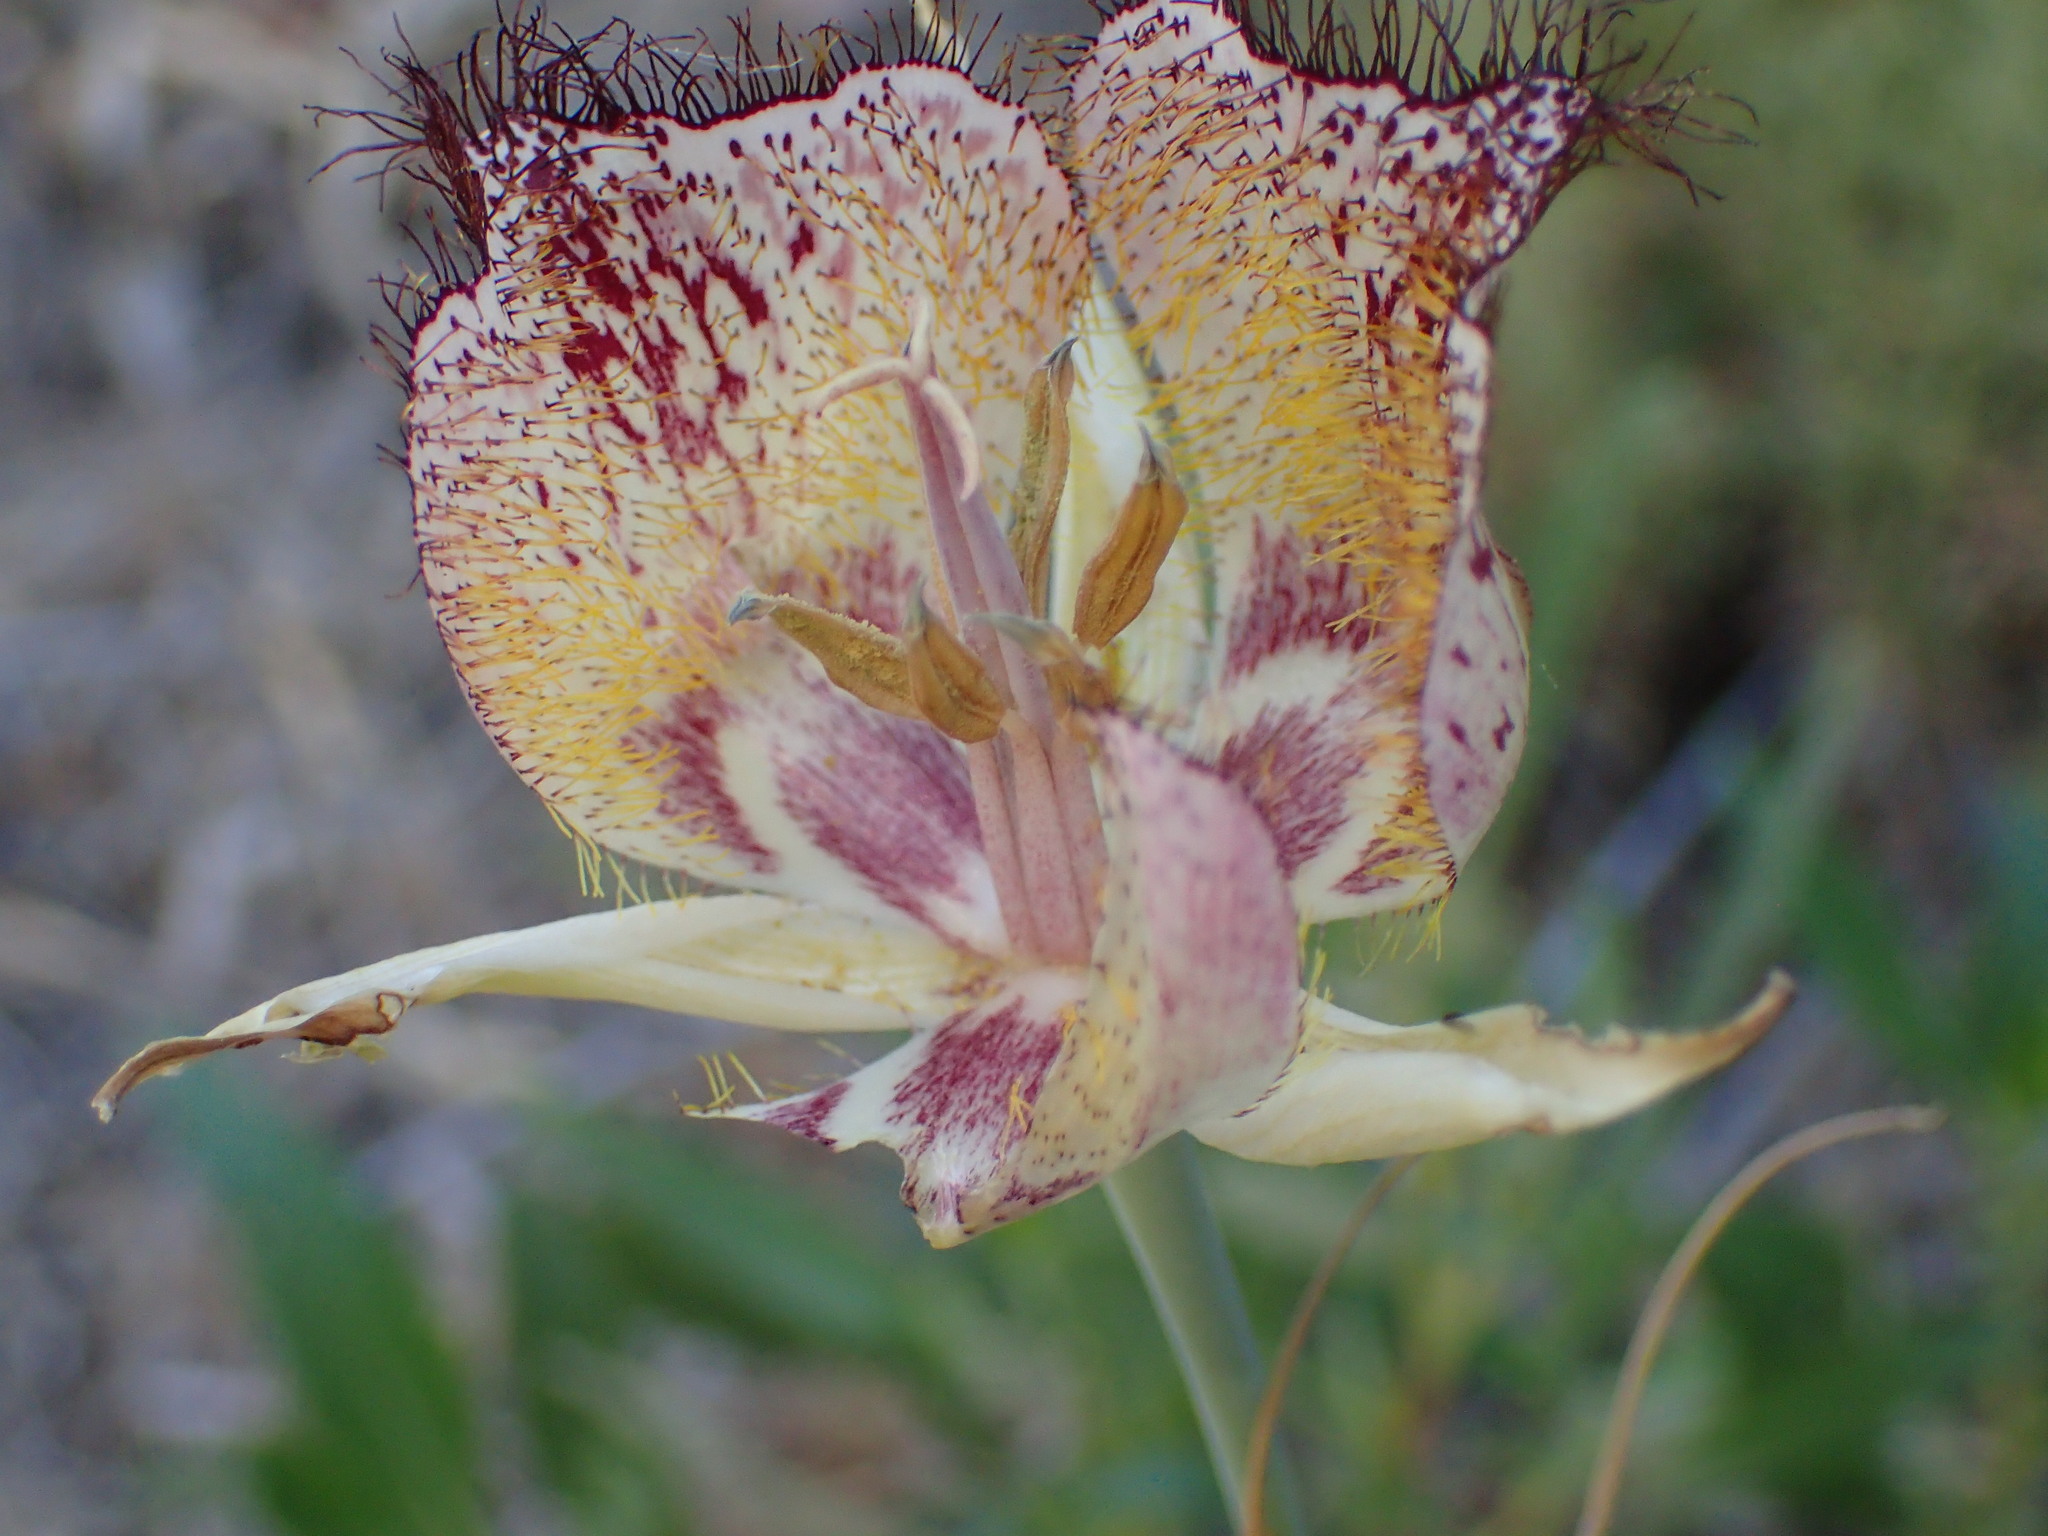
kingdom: Plantae
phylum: Tracheophyta
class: Liliopsida
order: Liliales
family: Liliaceae
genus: Calochortus
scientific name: Calochortus fimbriatus
